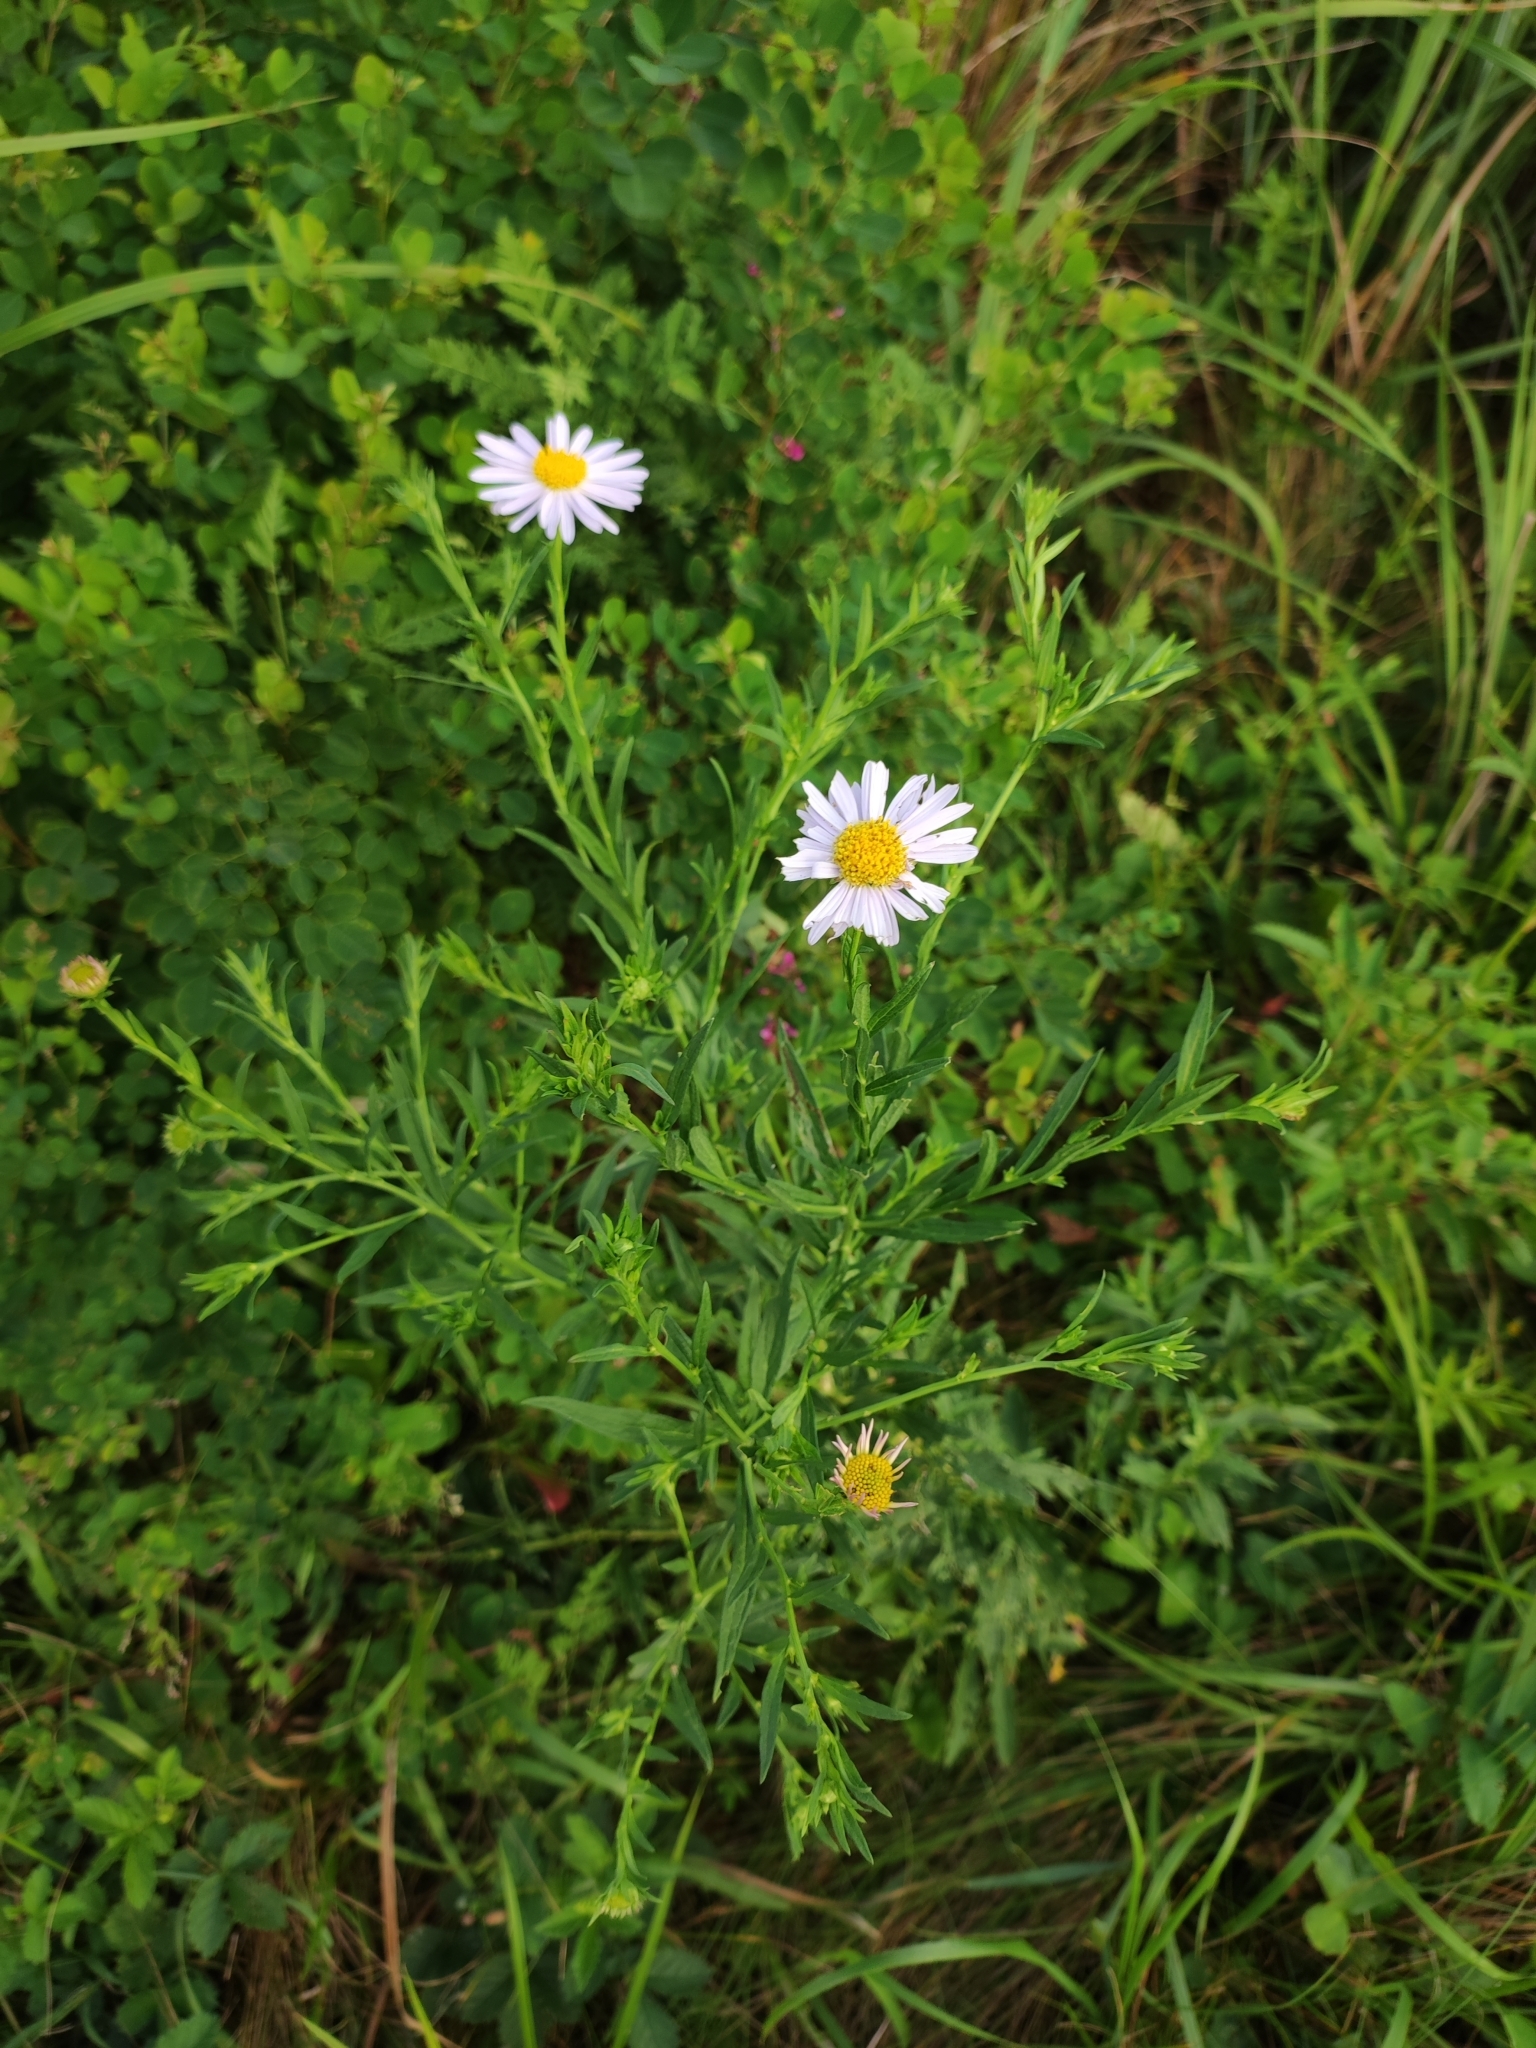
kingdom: Plantae
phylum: Tracheophyta
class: Magnoliopsida
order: Asterales
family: Asteraceae
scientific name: Asteraceae
